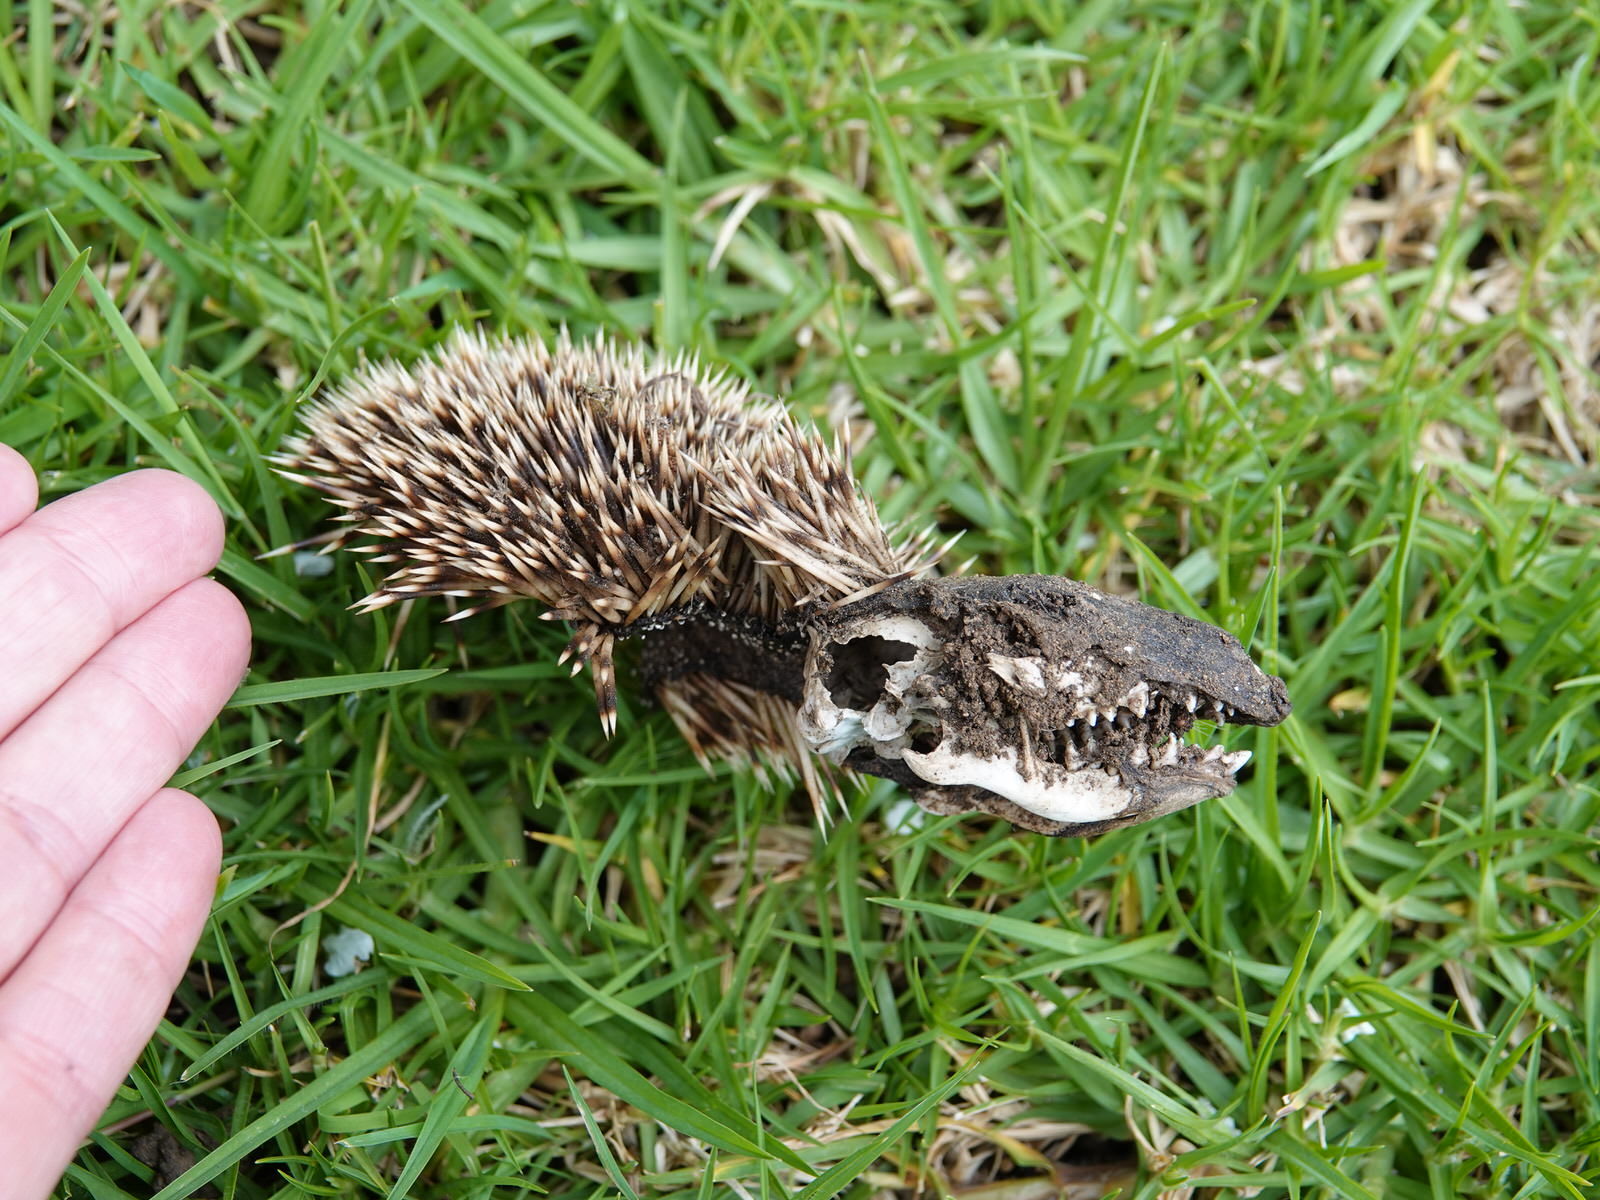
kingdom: Animalia
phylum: Chordata
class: Mammalia
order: Erinaceomorpha
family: Erinaceidae
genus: Erinaceus
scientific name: Erinaceus europaeus
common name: West european hedgehog
